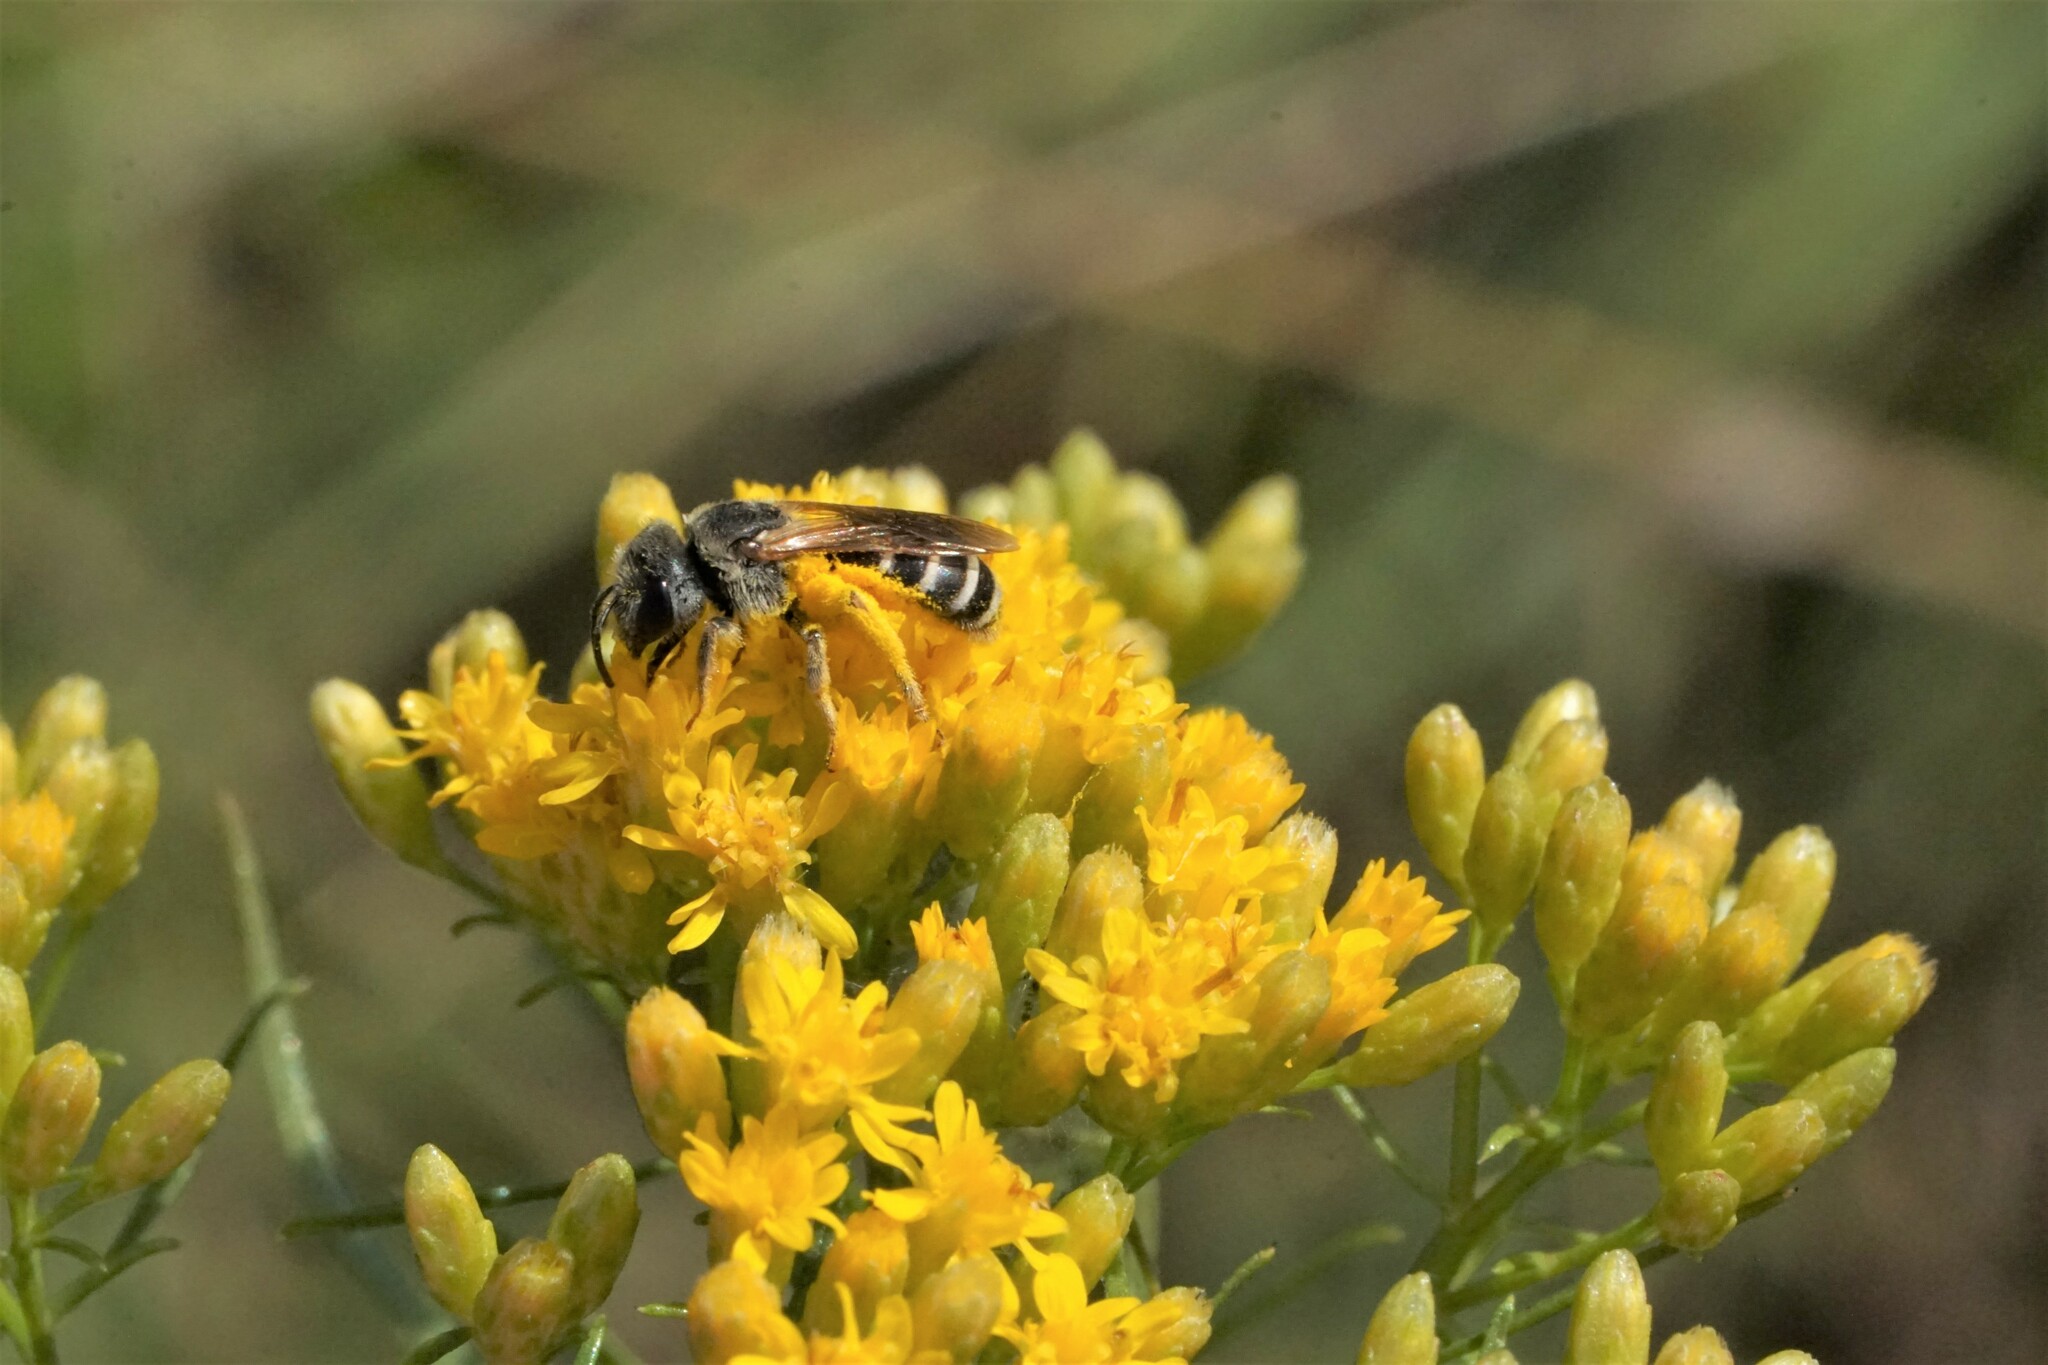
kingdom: Animalia
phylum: Arthropoda
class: Insecta
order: Hymenoptera
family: Halictidae
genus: Halictus
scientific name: Halictus ligatus
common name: Ligated furrow bee
